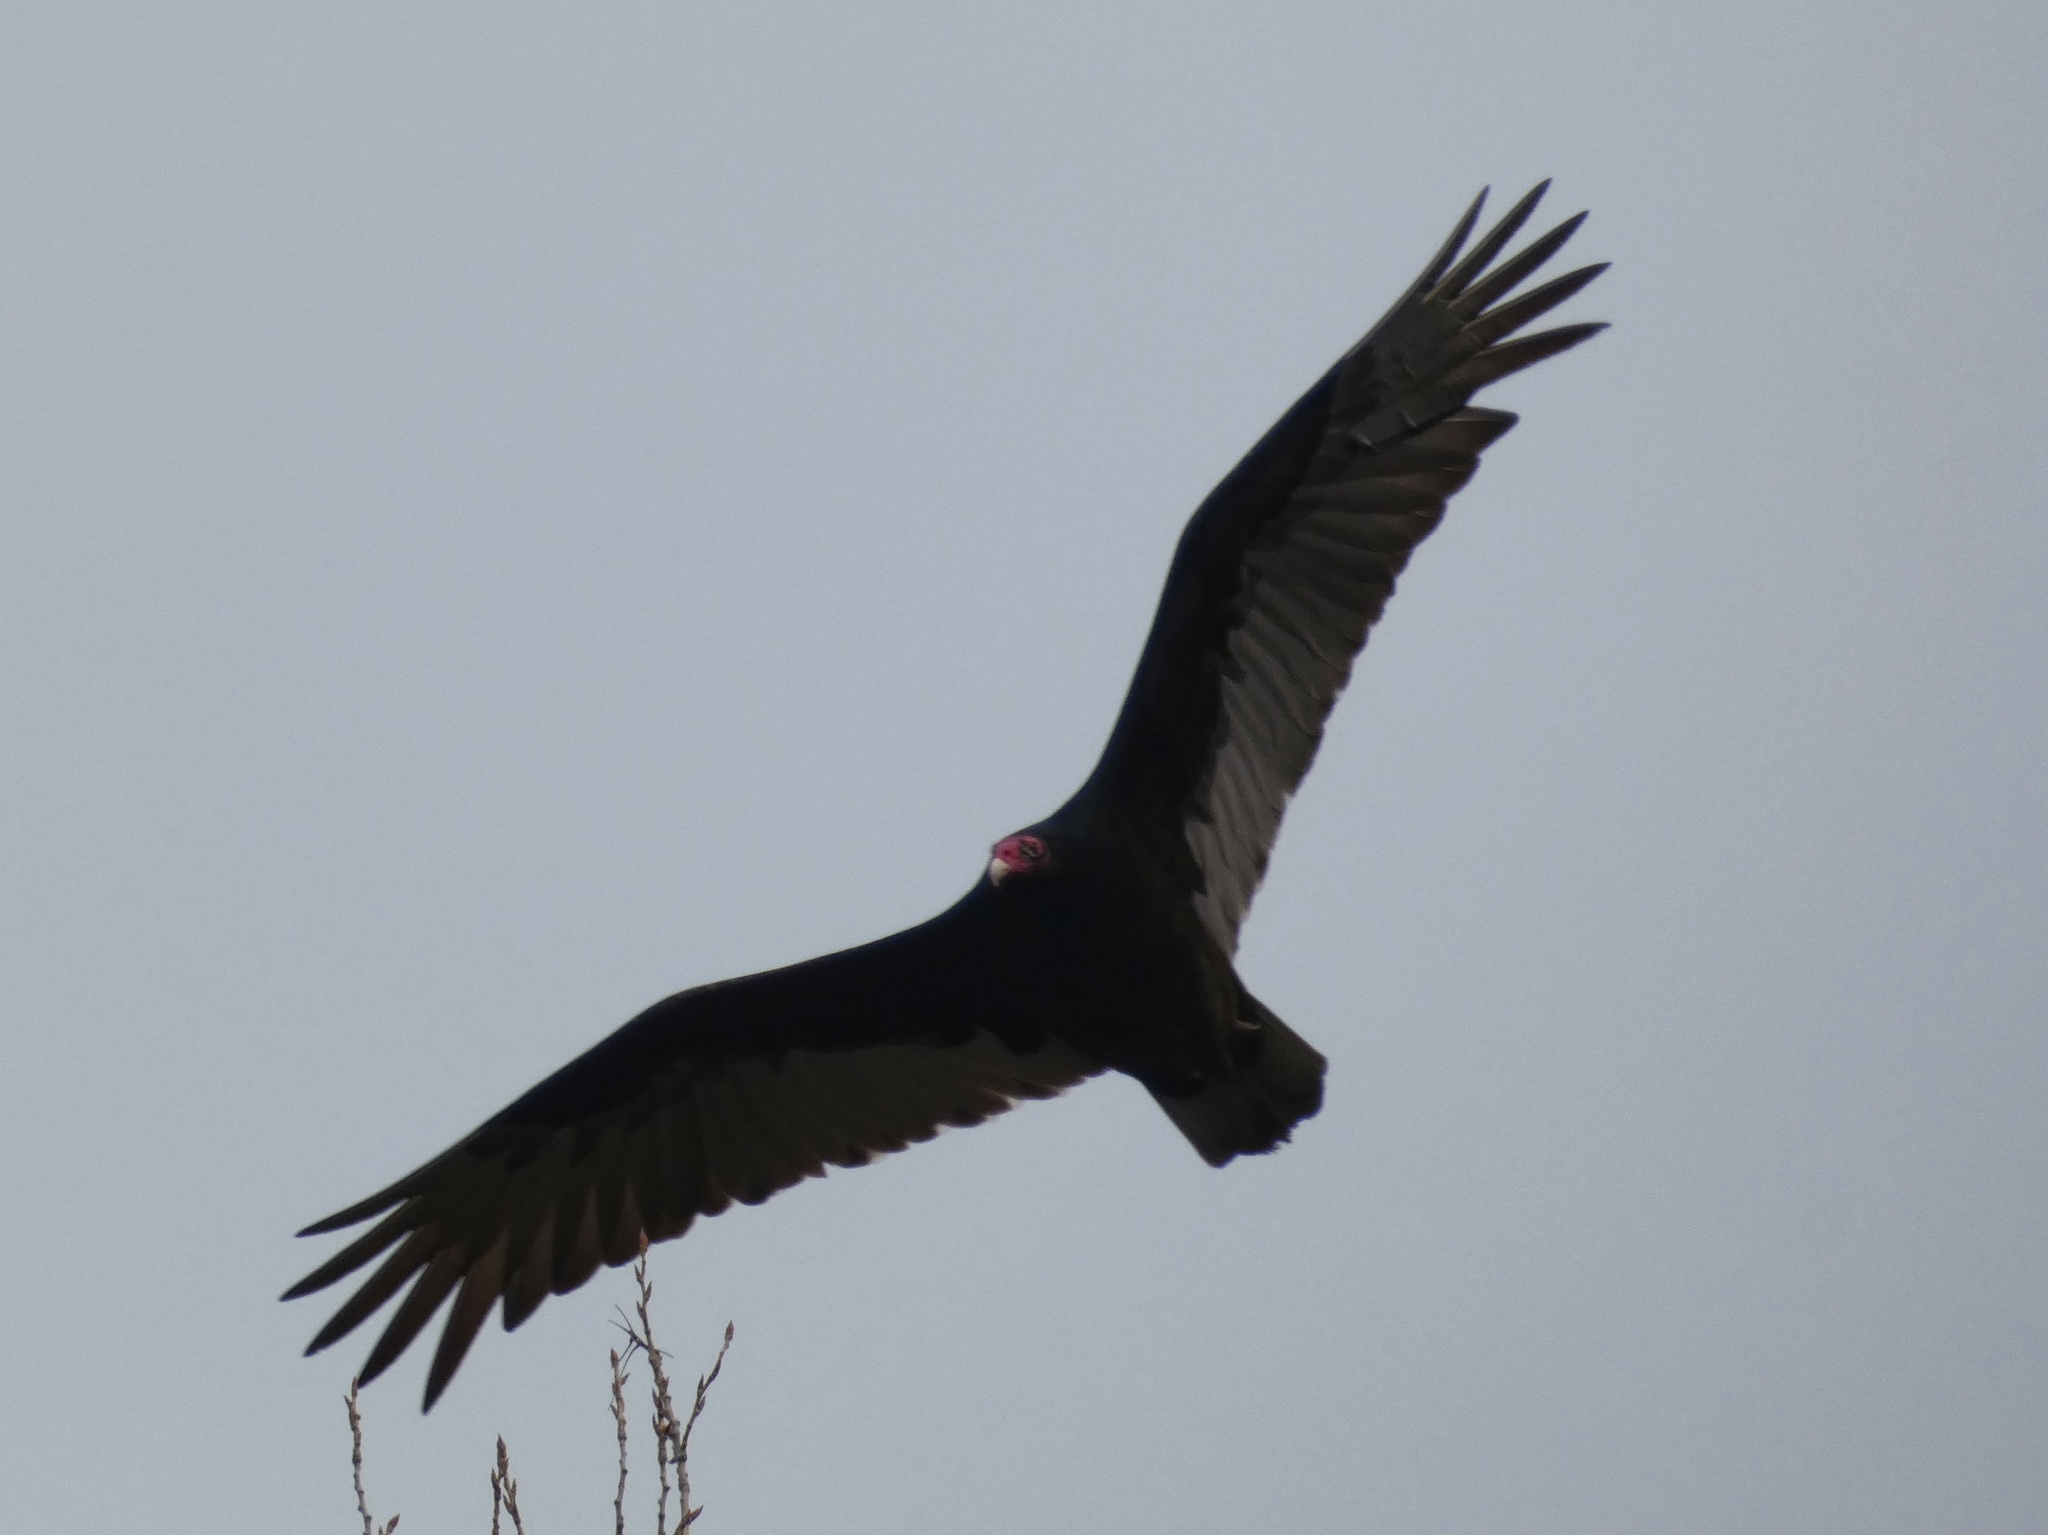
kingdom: Animalia
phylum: Chordata
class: Aves
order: Accipitriformes
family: Cathartidae
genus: Cathartes
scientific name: Cathartes aura
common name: Turkey vulture
